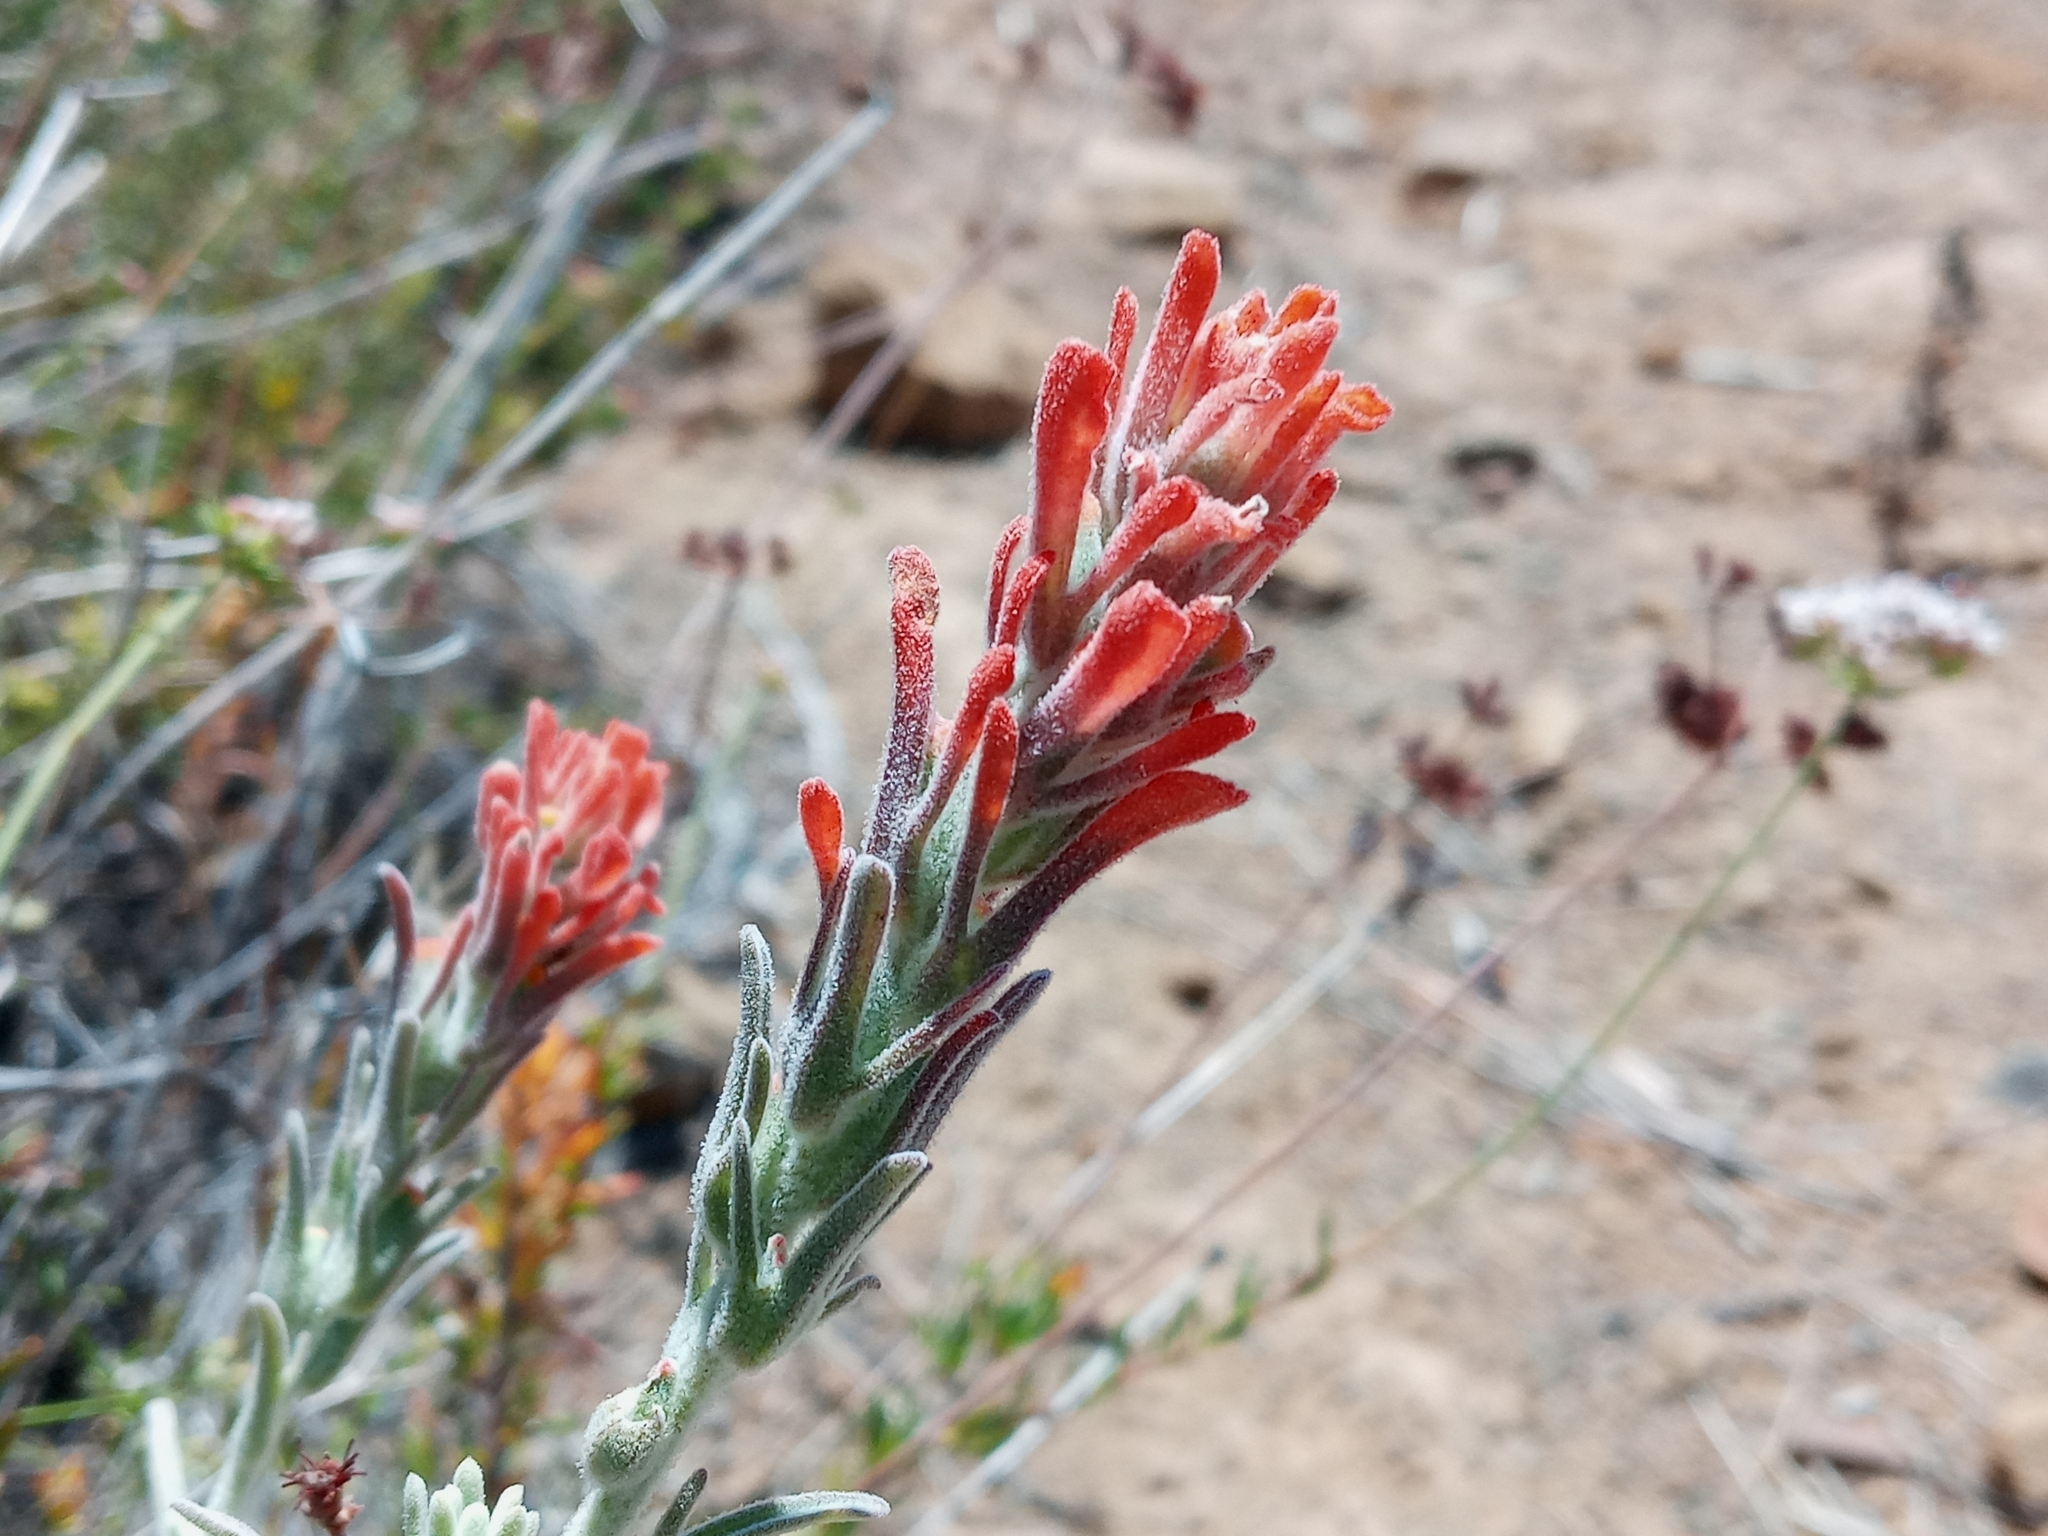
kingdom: Plantae
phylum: Tracheophyta
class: Magnoliopsida
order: Lamiales
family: Orobanchaceae
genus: Castilleja
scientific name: Castilleja foliolosa
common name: Woolly indian paintbrush
